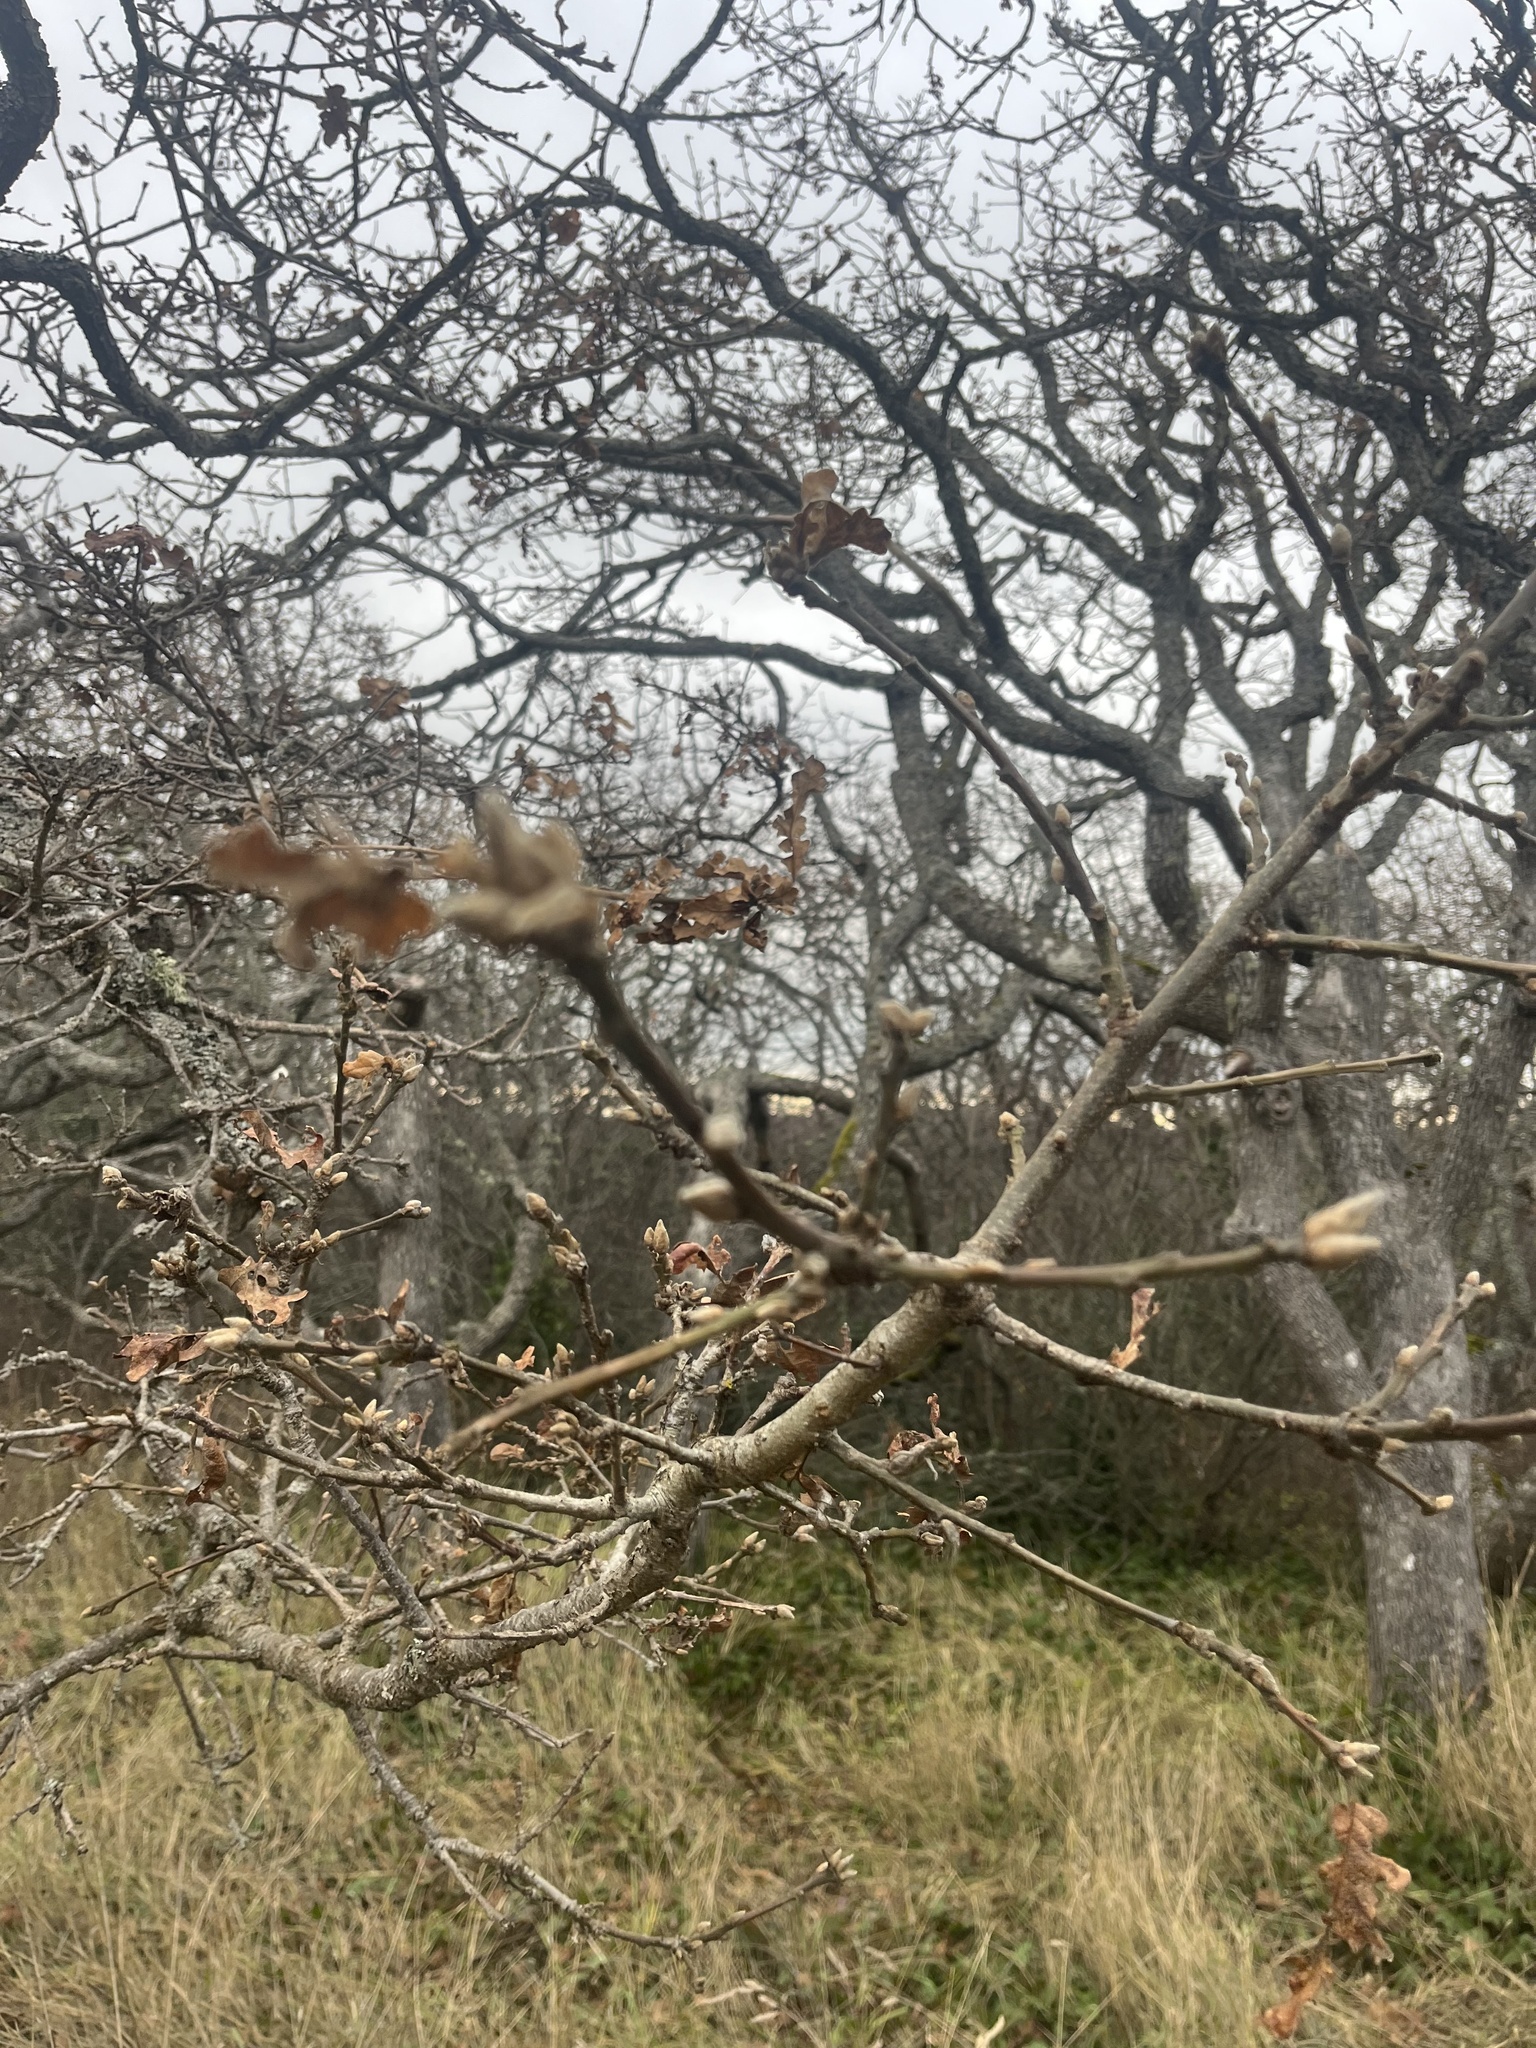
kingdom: Plantae
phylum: Tracheophyta
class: Magnoliopsida
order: Fagales
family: Fagaceae
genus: Quercus
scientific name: Quercus garryana
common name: Garry oak
